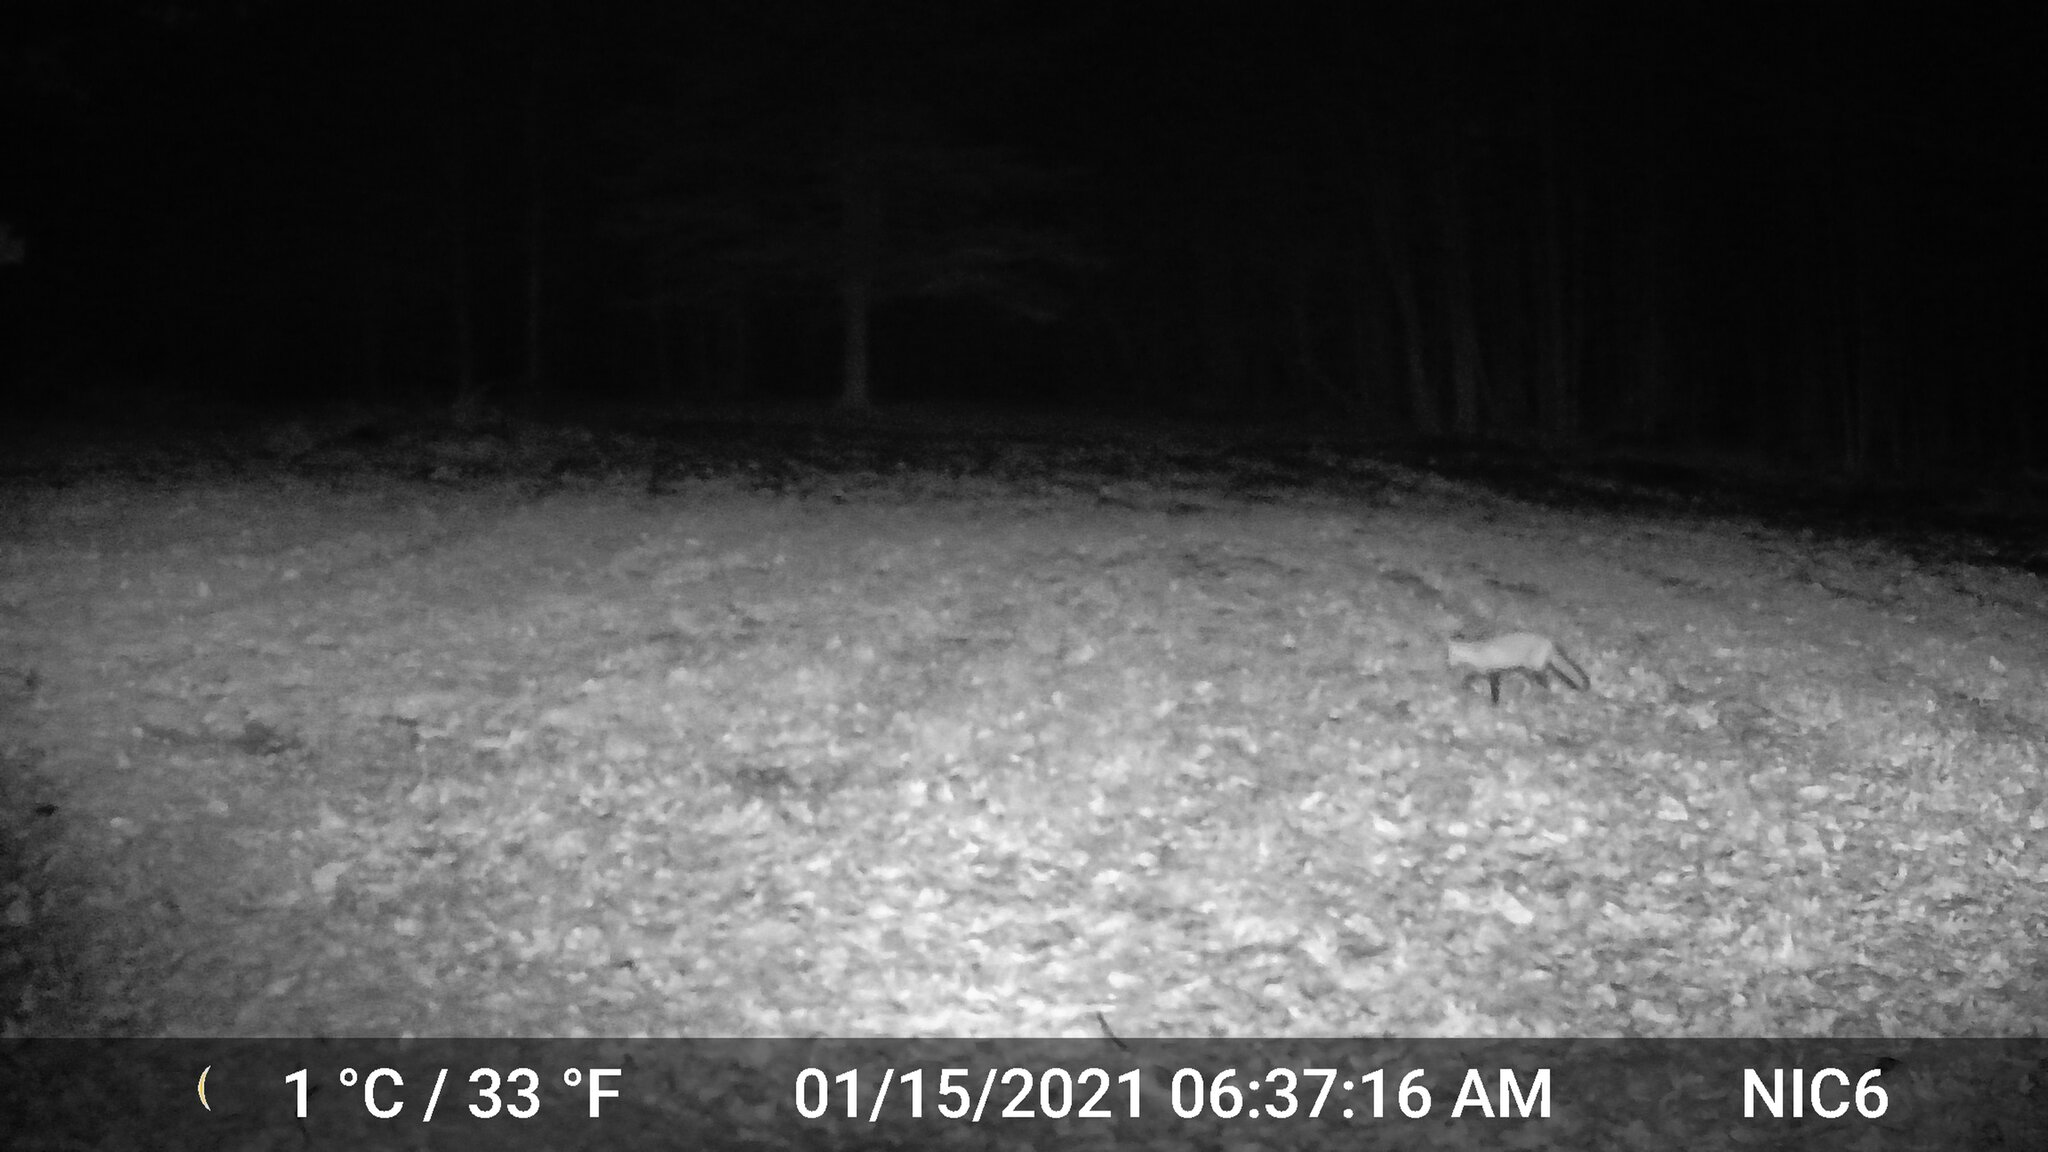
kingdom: Animalia
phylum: Chordata
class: Mammalia
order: Carnivora
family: Canidae
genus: Vulpes
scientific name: Vulpes vulpes
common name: Red fox
